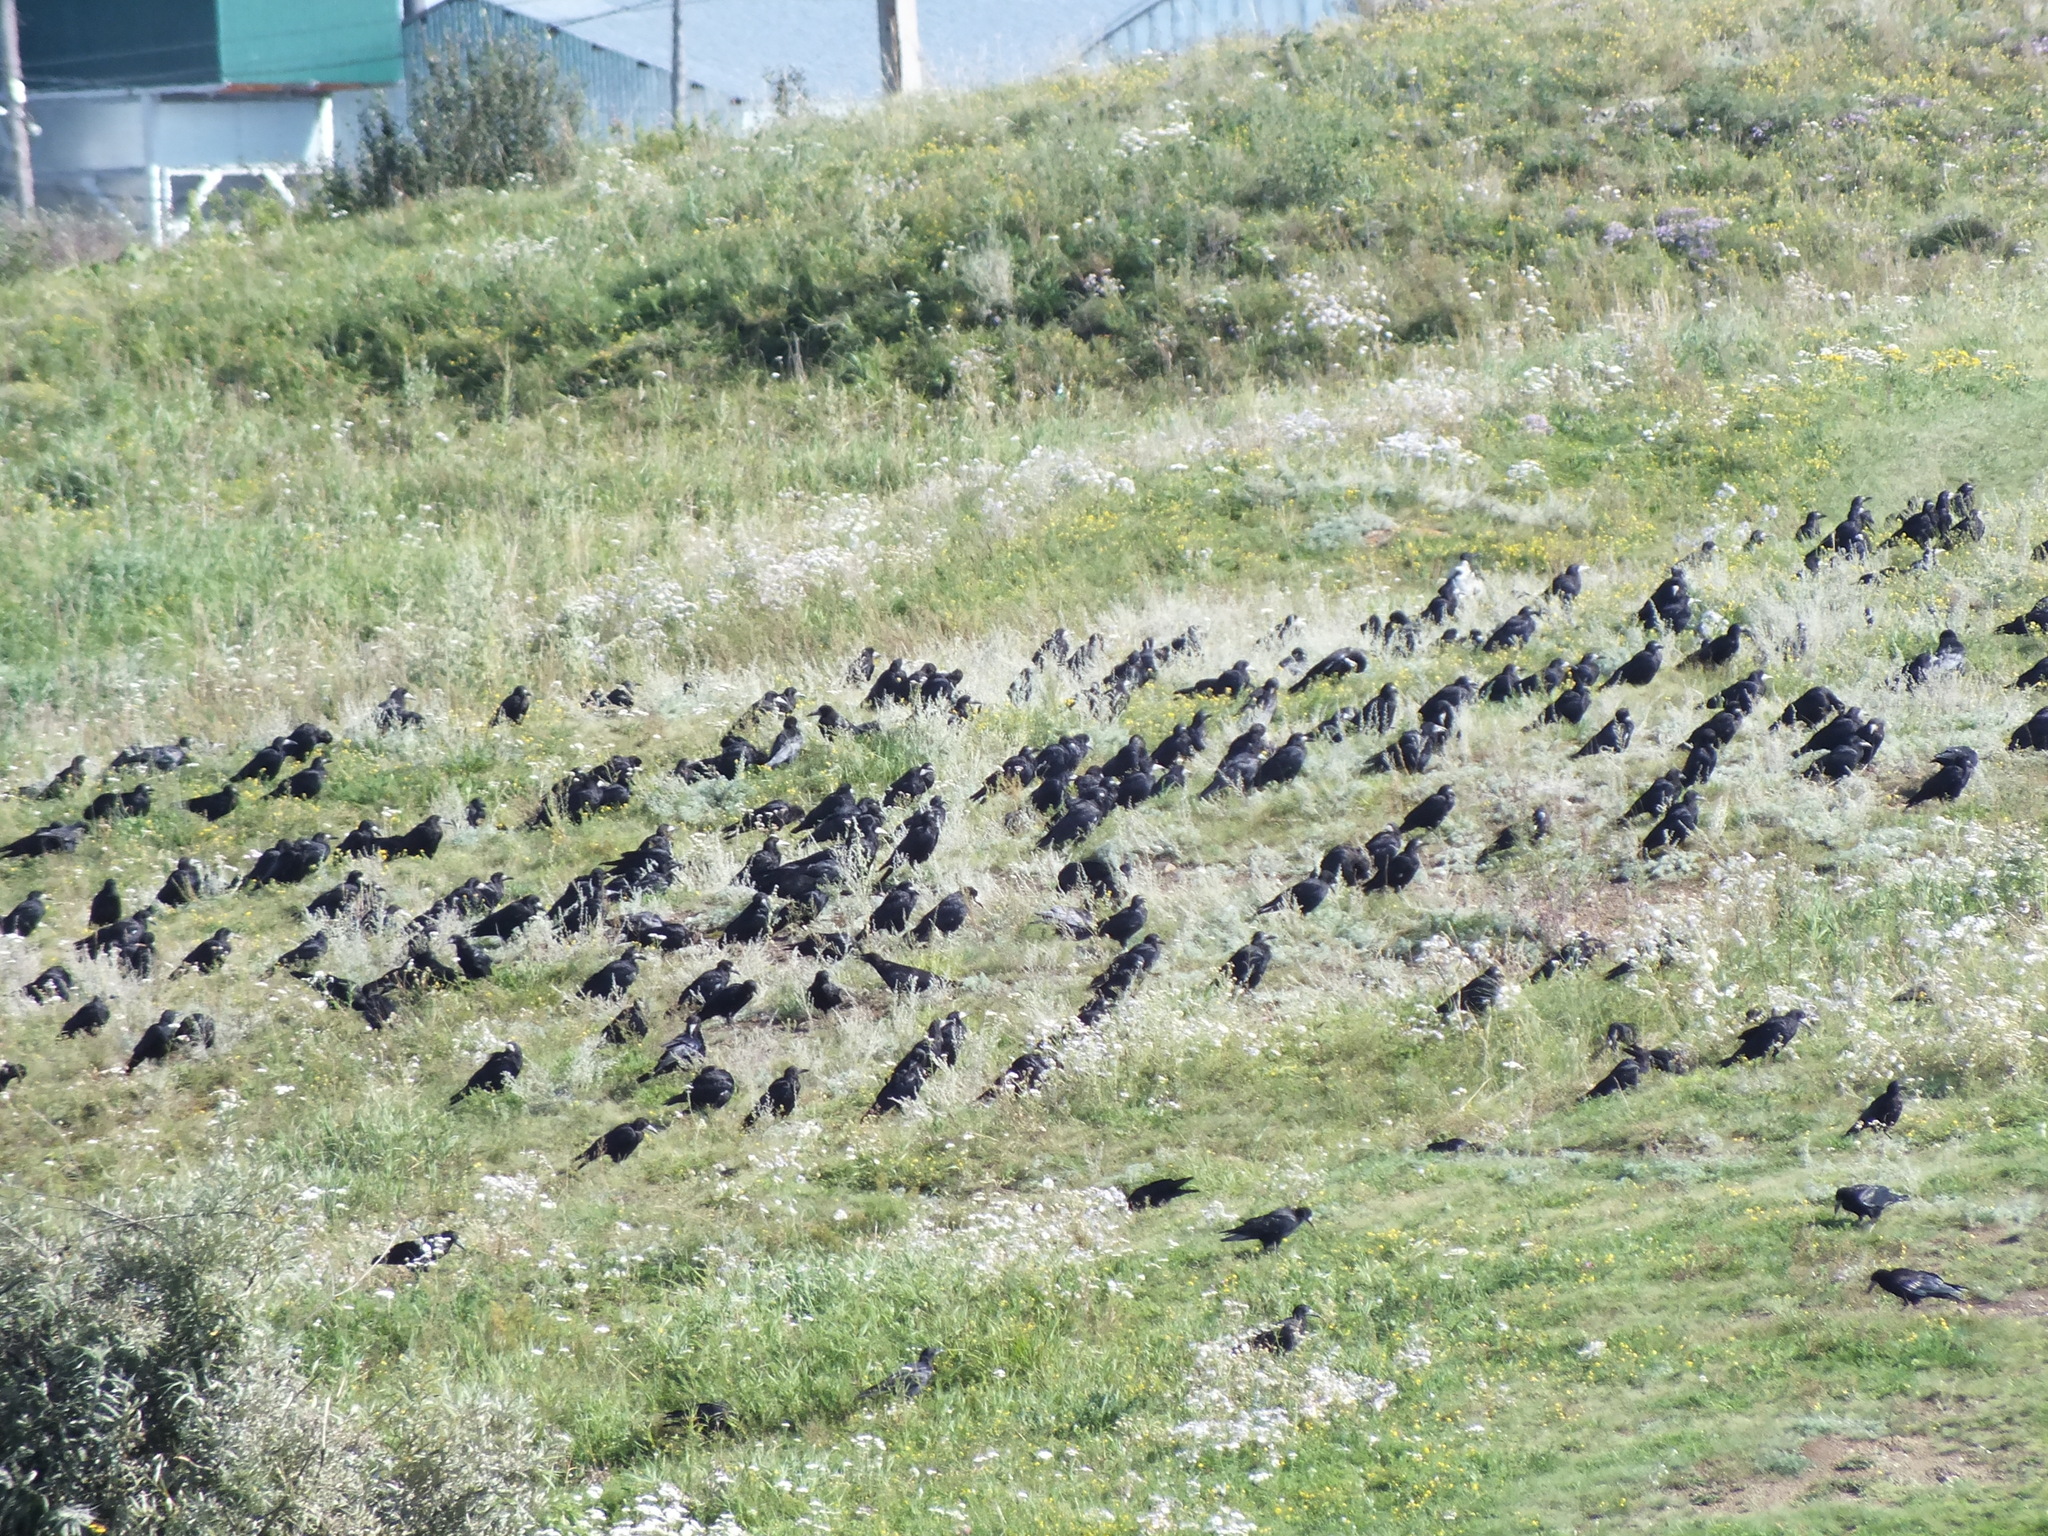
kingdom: Animalia
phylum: Chordata
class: Aves
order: Passeriformes
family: Corvidae
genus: Corvus
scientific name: Corvus frugilegus
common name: Rook
